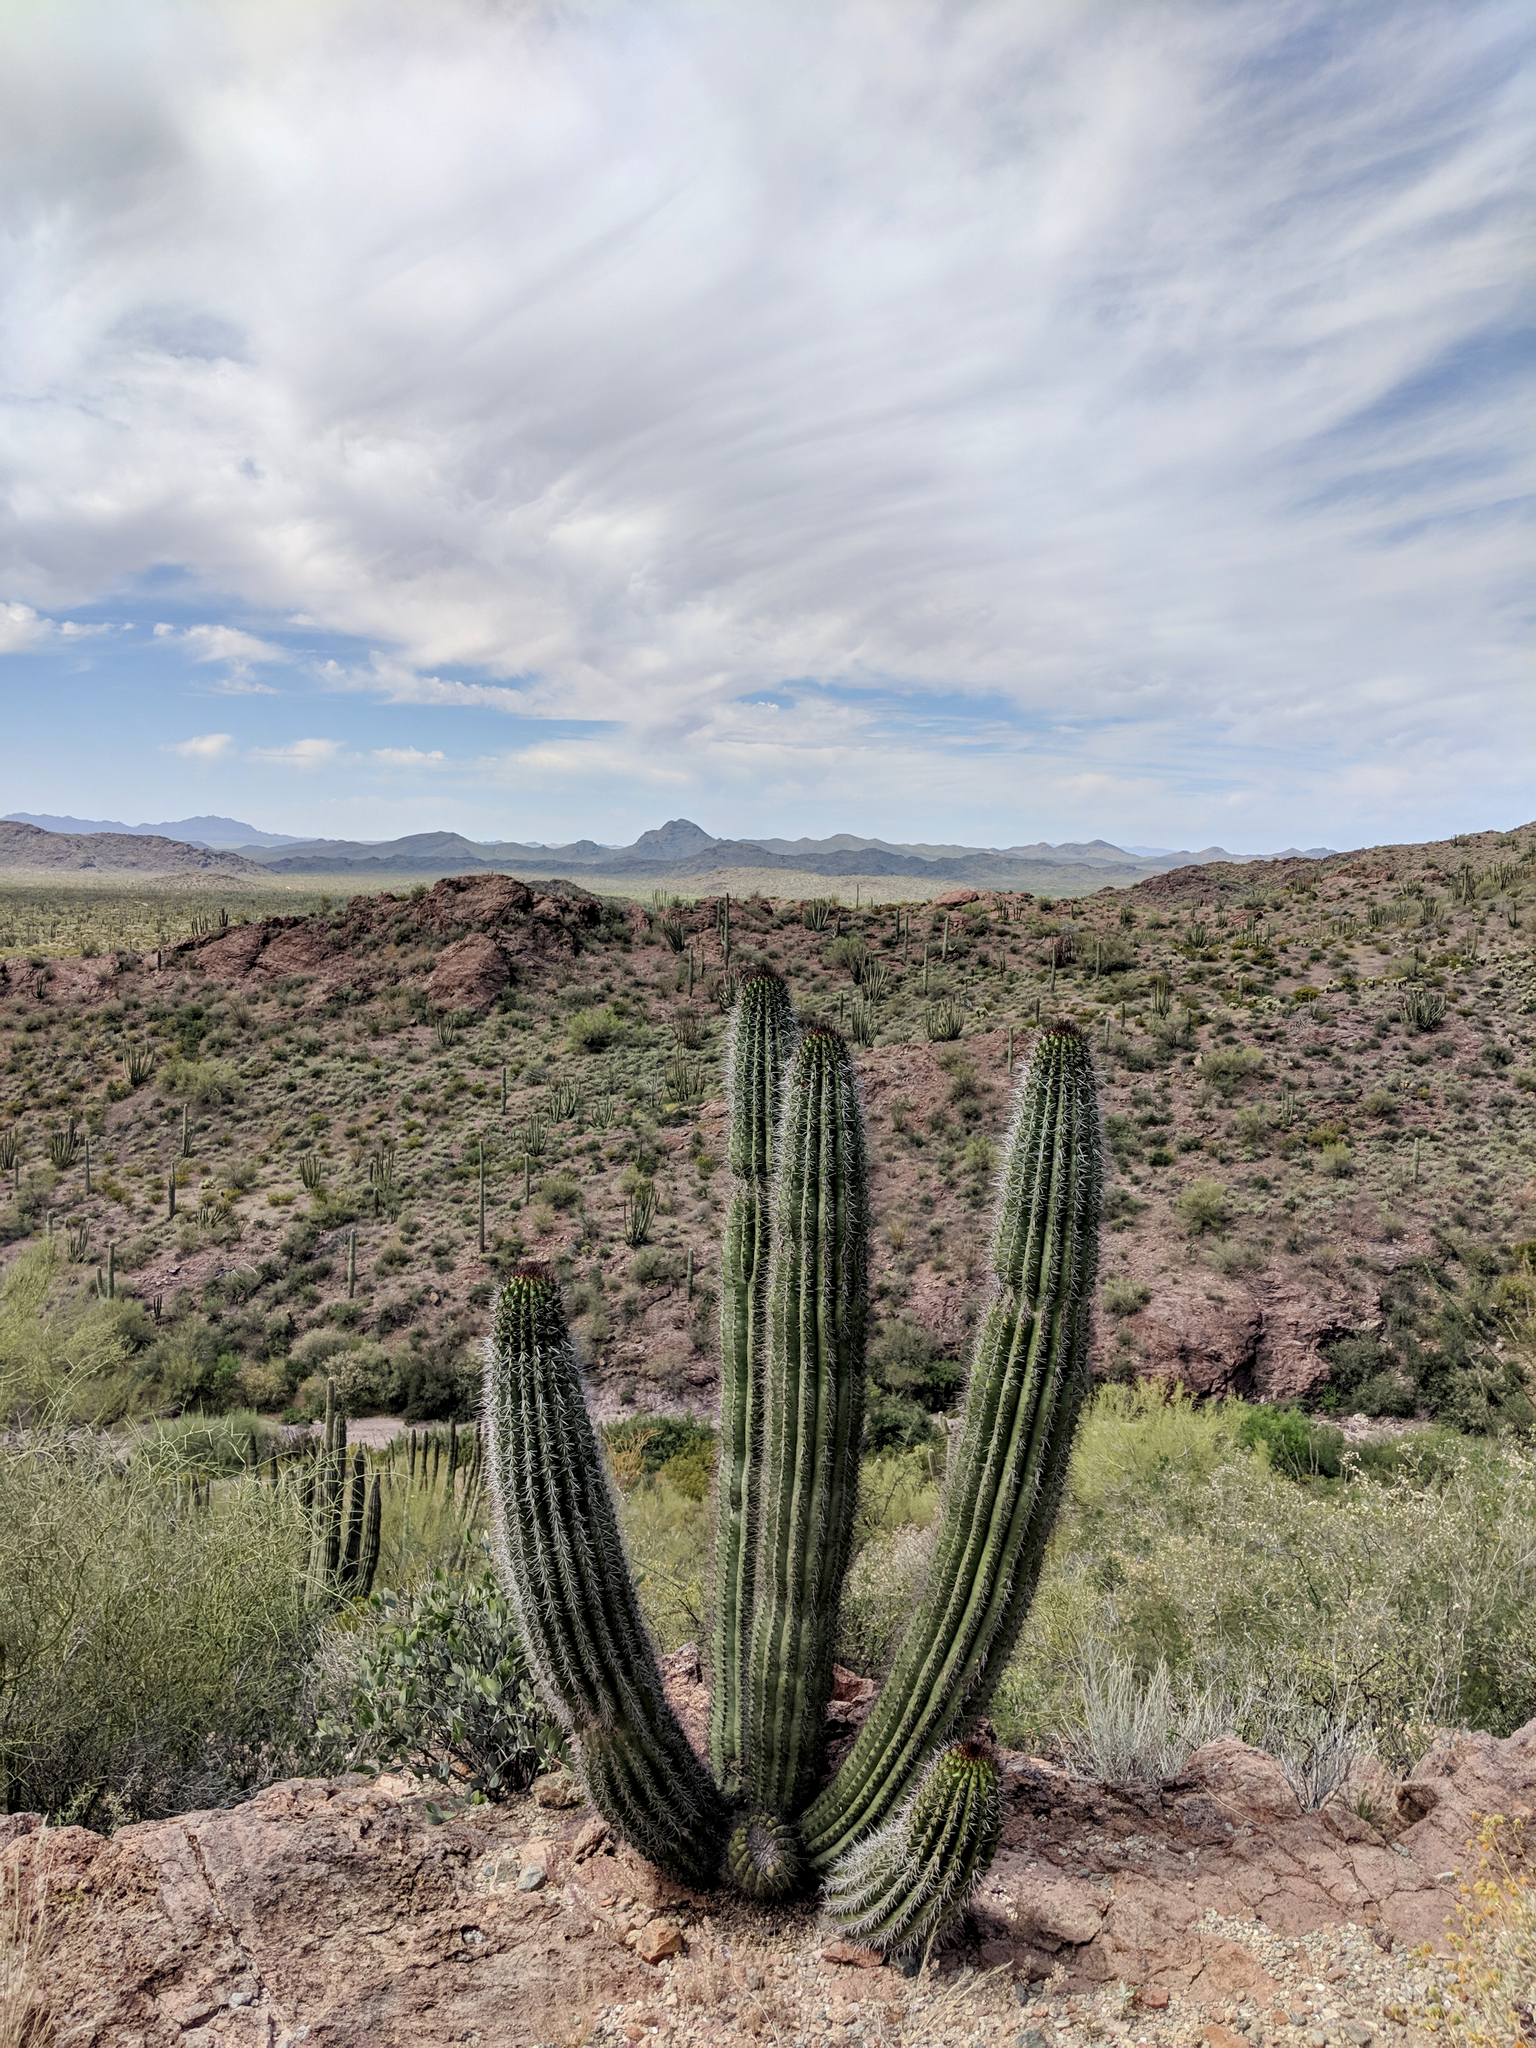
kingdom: Plantae
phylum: Tracheophyta
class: Magnoliopsida
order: Caryophyllales
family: Cactaceae
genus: Stenocereus
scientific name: Stenocereus thurberi
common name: Organ pipe cactus
